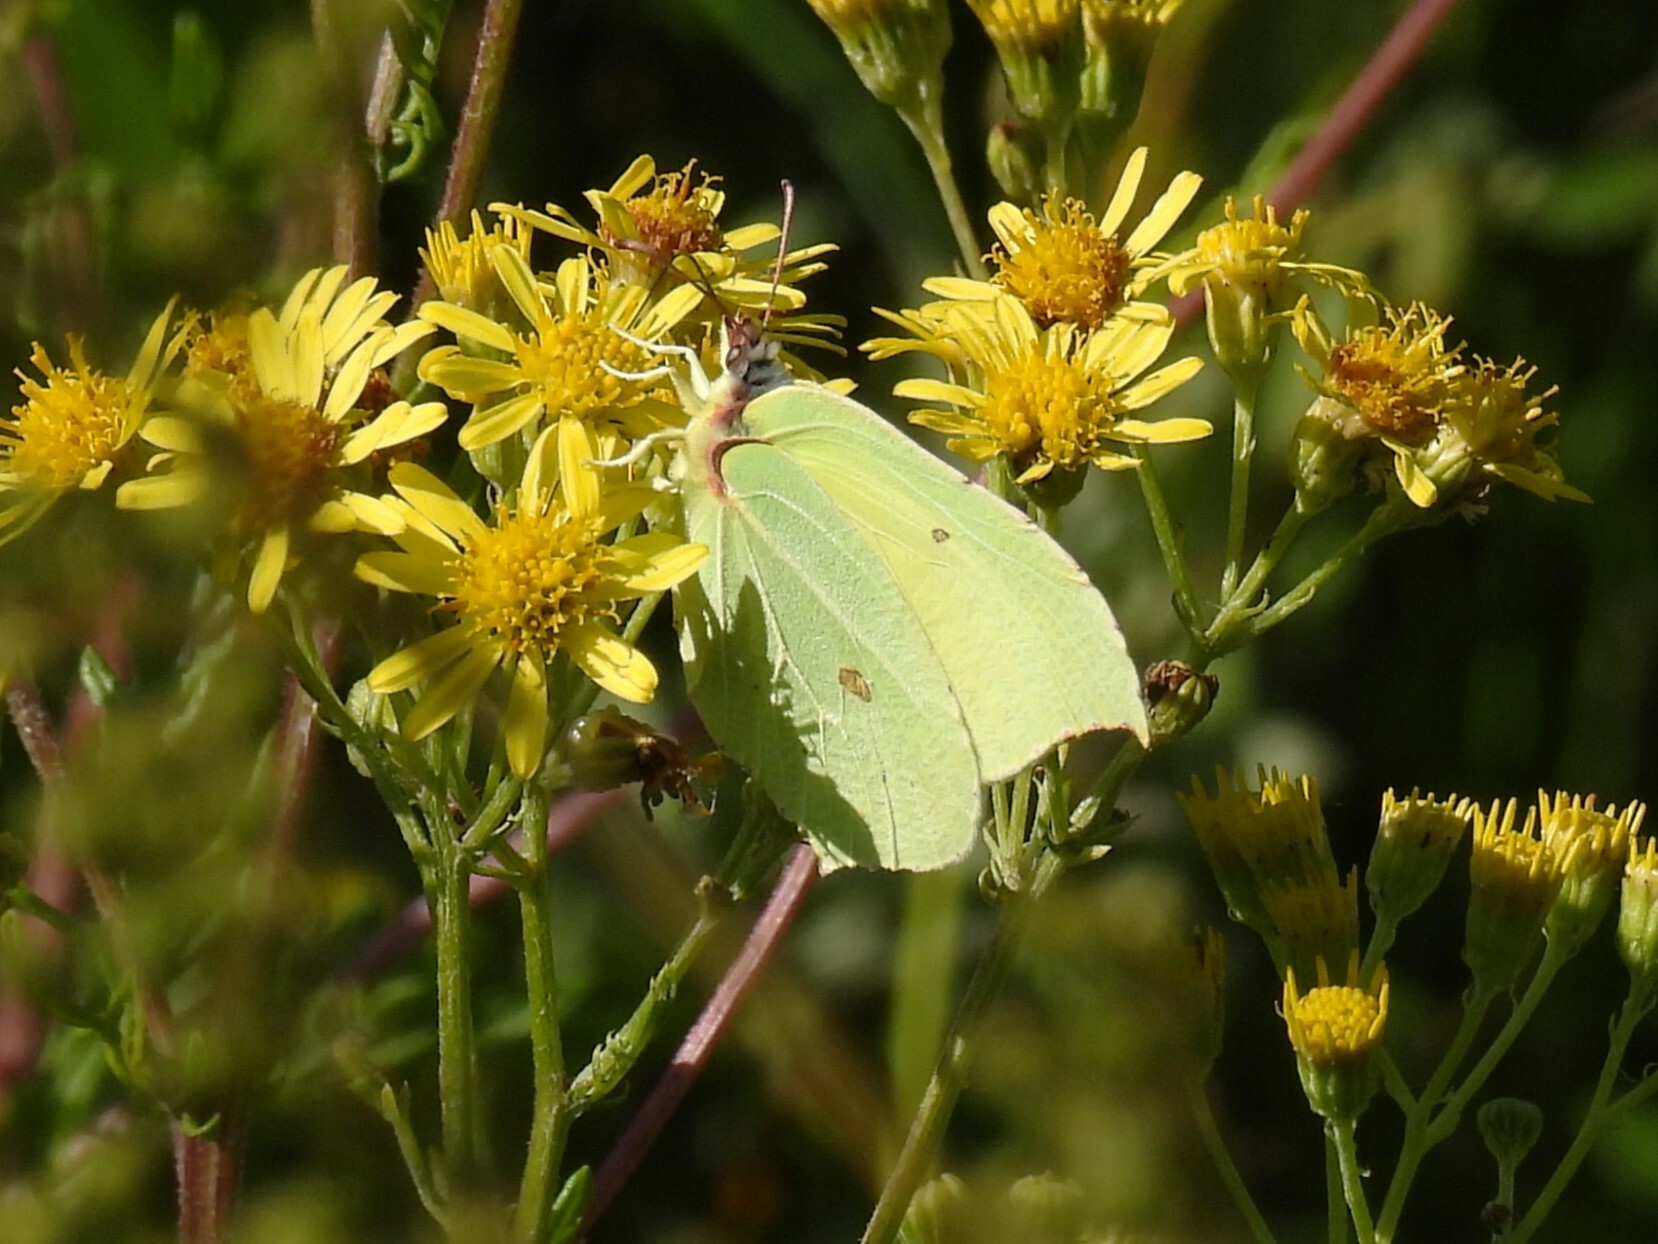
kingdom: Animalia
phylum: Arthropoda
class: Insecta
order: Lepidoptera
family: Pieridae
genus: Gonepteryx
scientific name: Gonepteryx rhamni
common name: Brimstone
